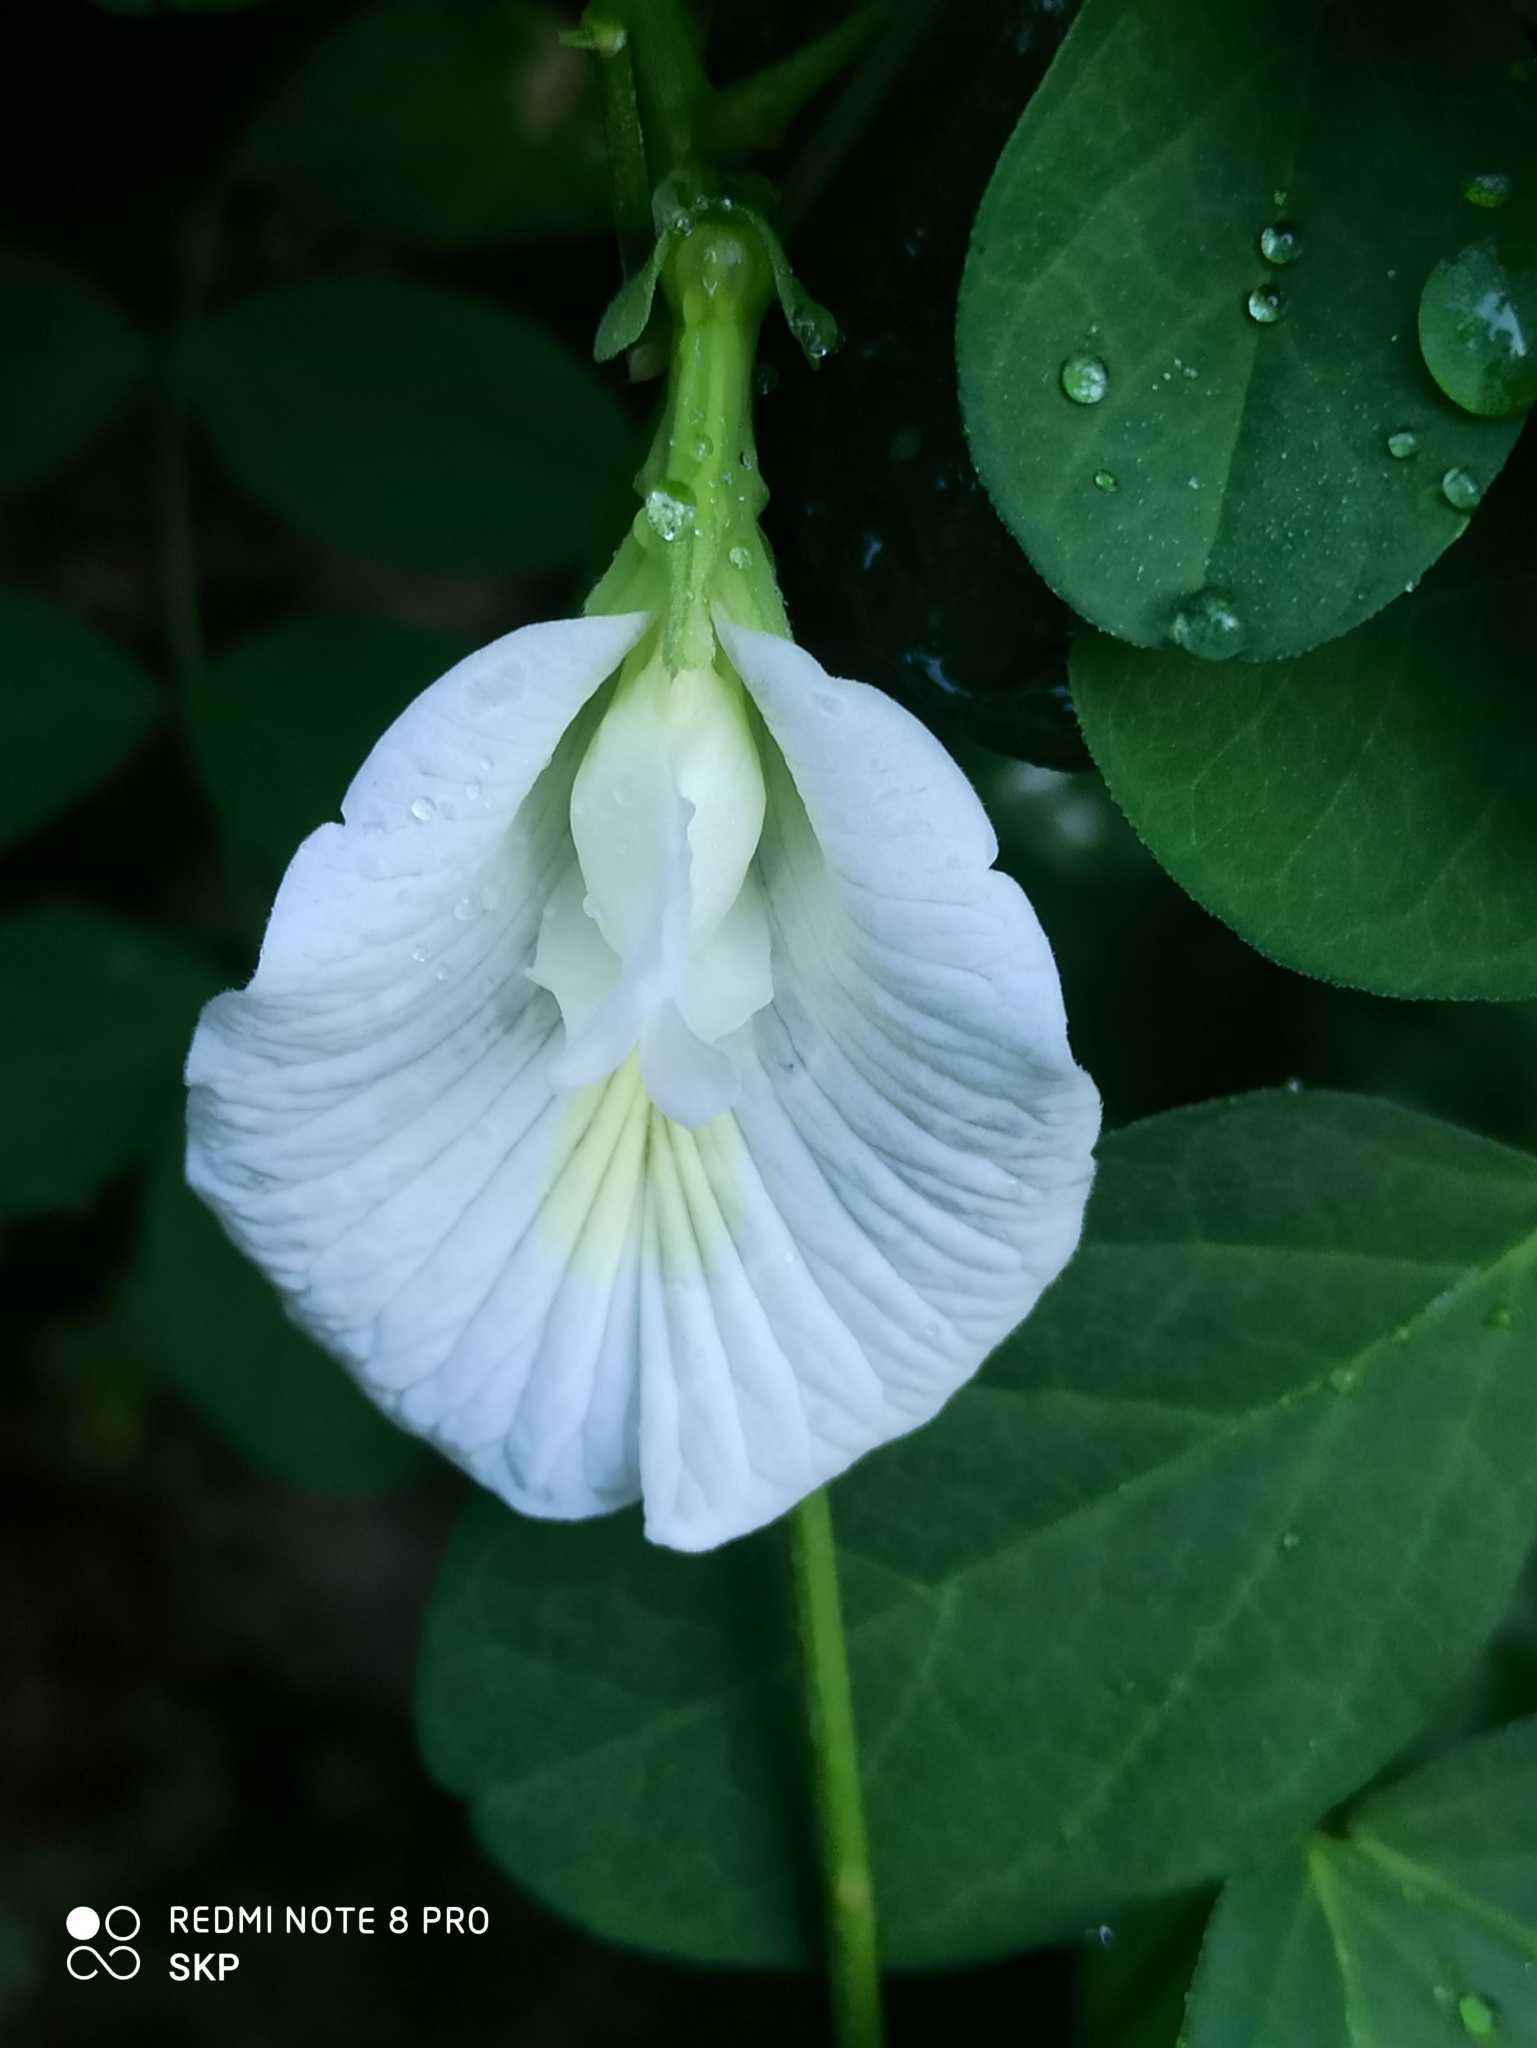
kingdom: Plantae
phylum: Tracheophyta
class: Magnoliopsida
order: Fabales
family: Fabaceae
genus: Clitoria
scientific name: Clitoria ternatea
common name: Asian pigeonwings
